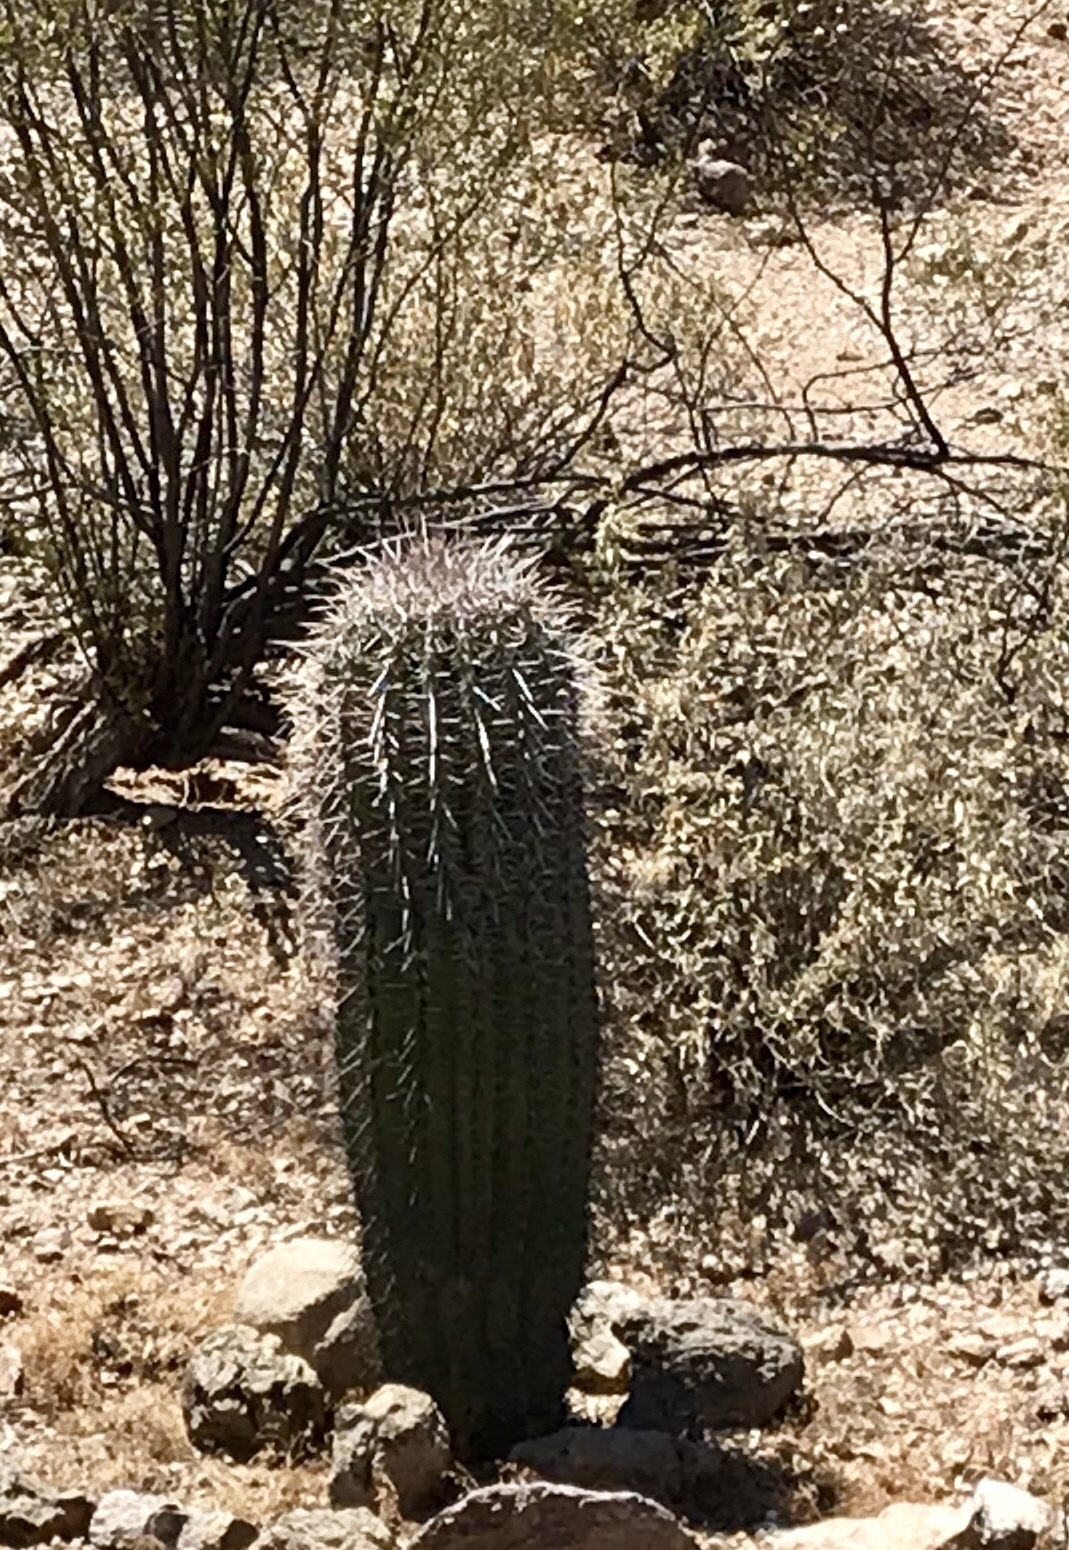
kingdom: Plantae
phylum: Tracheophyta
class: Magnoliopsida
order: Caryophyllales
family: Cactaceae
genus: Carnegiea
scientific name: Carnegiea gigantea
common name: Saguaro
